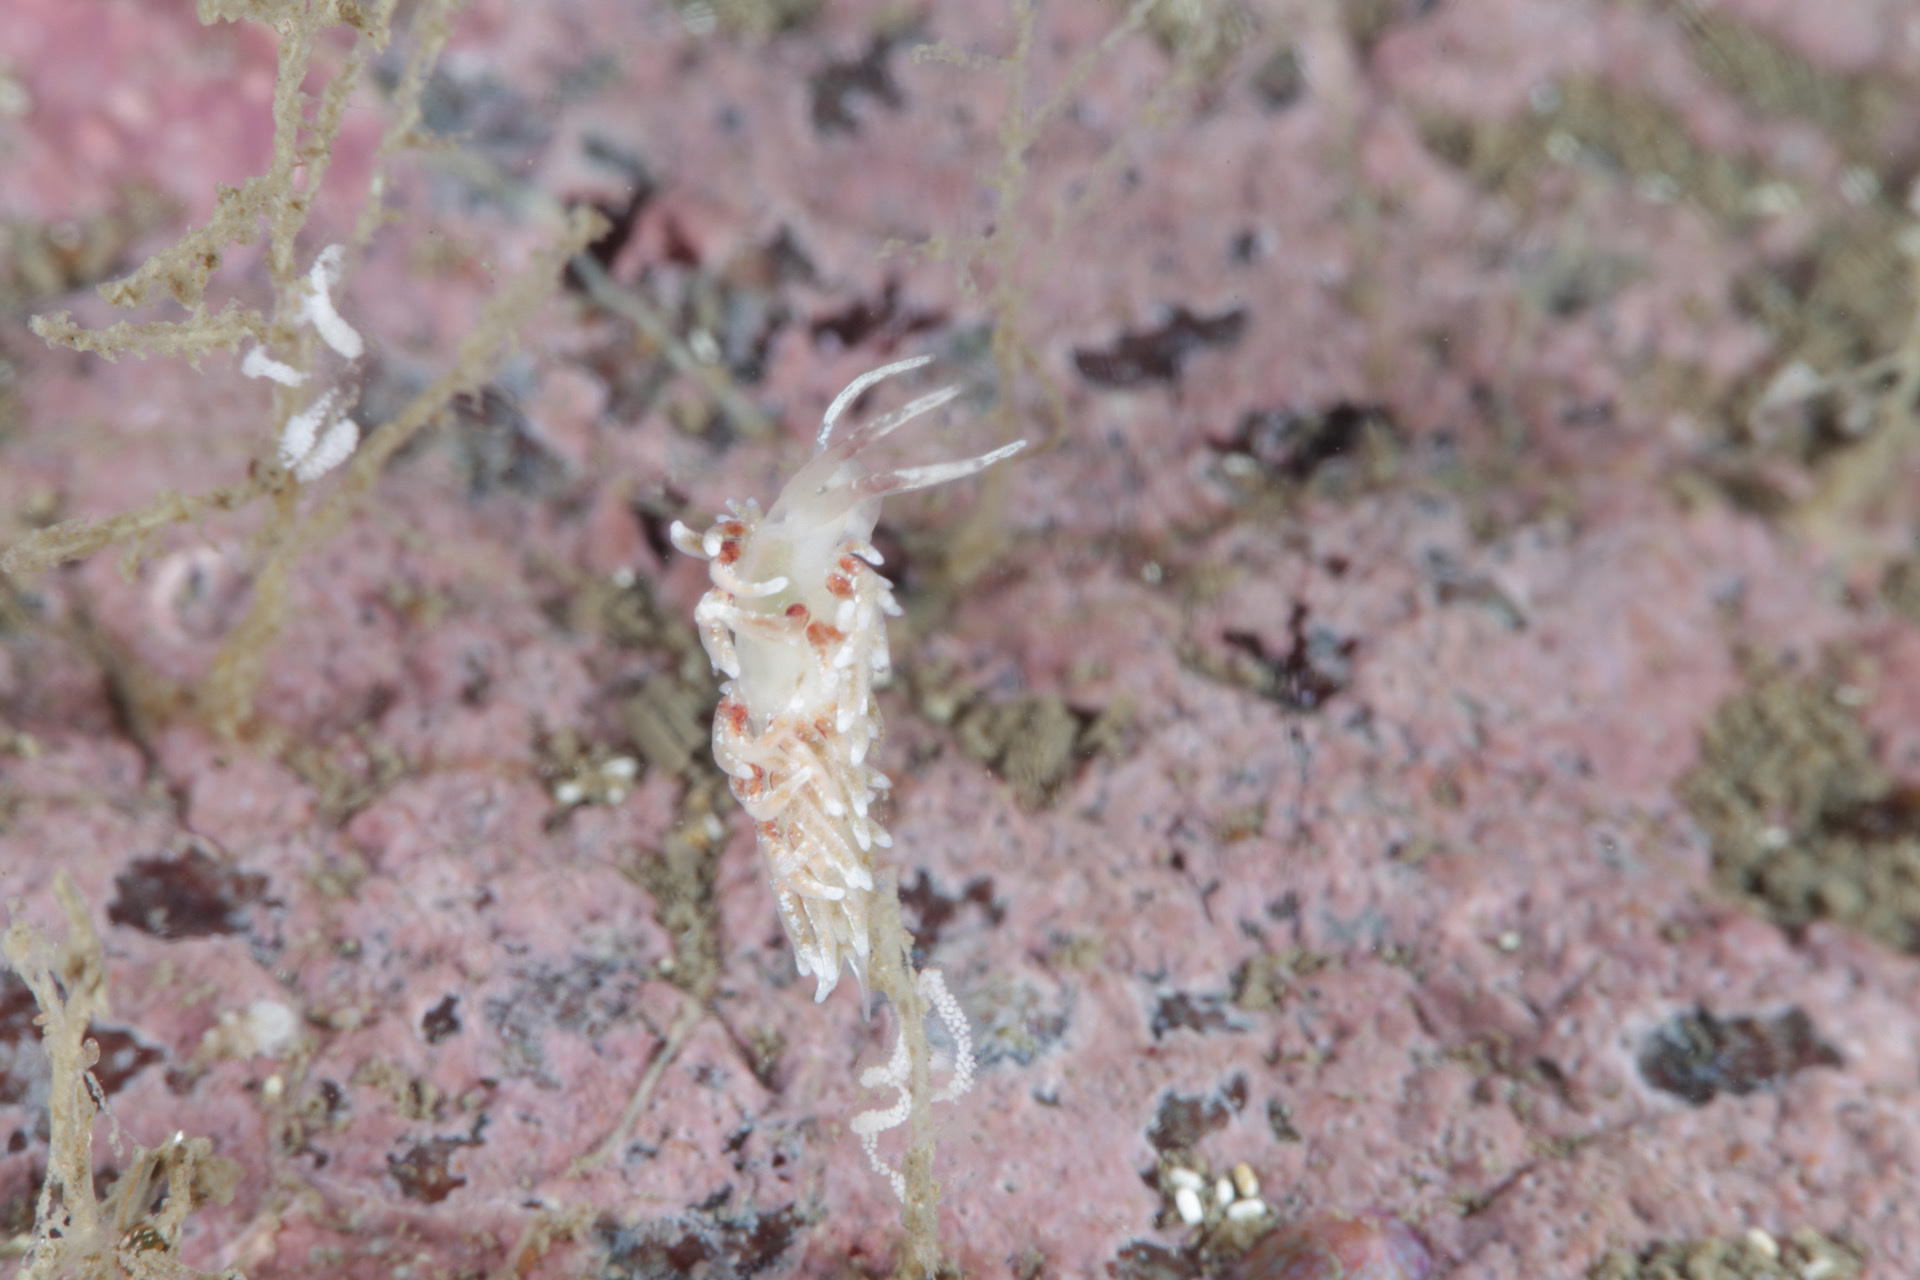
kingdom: Animalia
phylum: Mollusca
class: Gastropoda
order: Nudibranchia
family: Trinchesiidae
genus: Rubramoena
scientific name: Rubramoena rubescens
